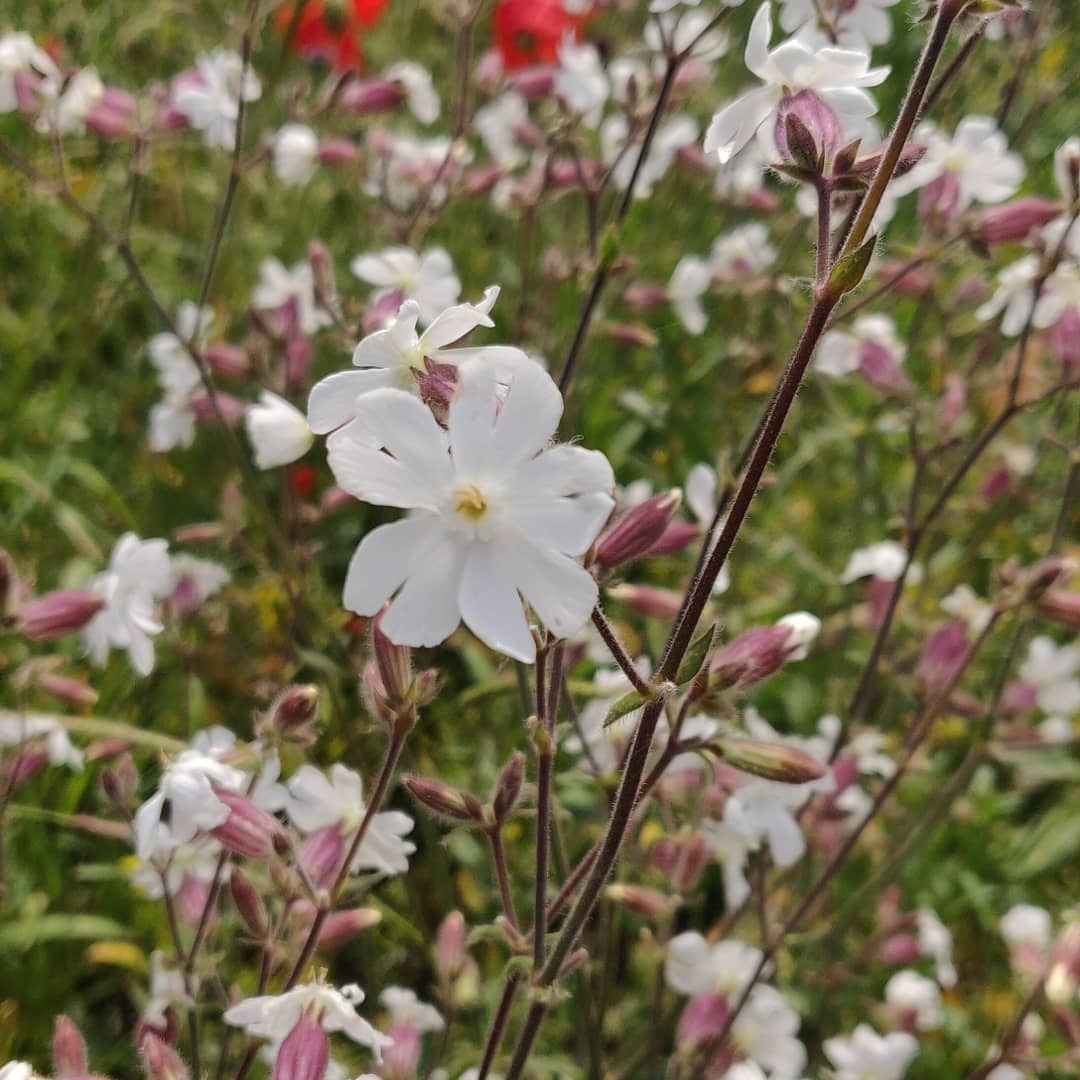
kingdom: Plantae
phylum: Tracheophyta
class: Magnoliopsida
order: Caryophyllales
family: Caryophyllaceae
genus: Silene
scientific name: Silene latifolia
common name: White campion
